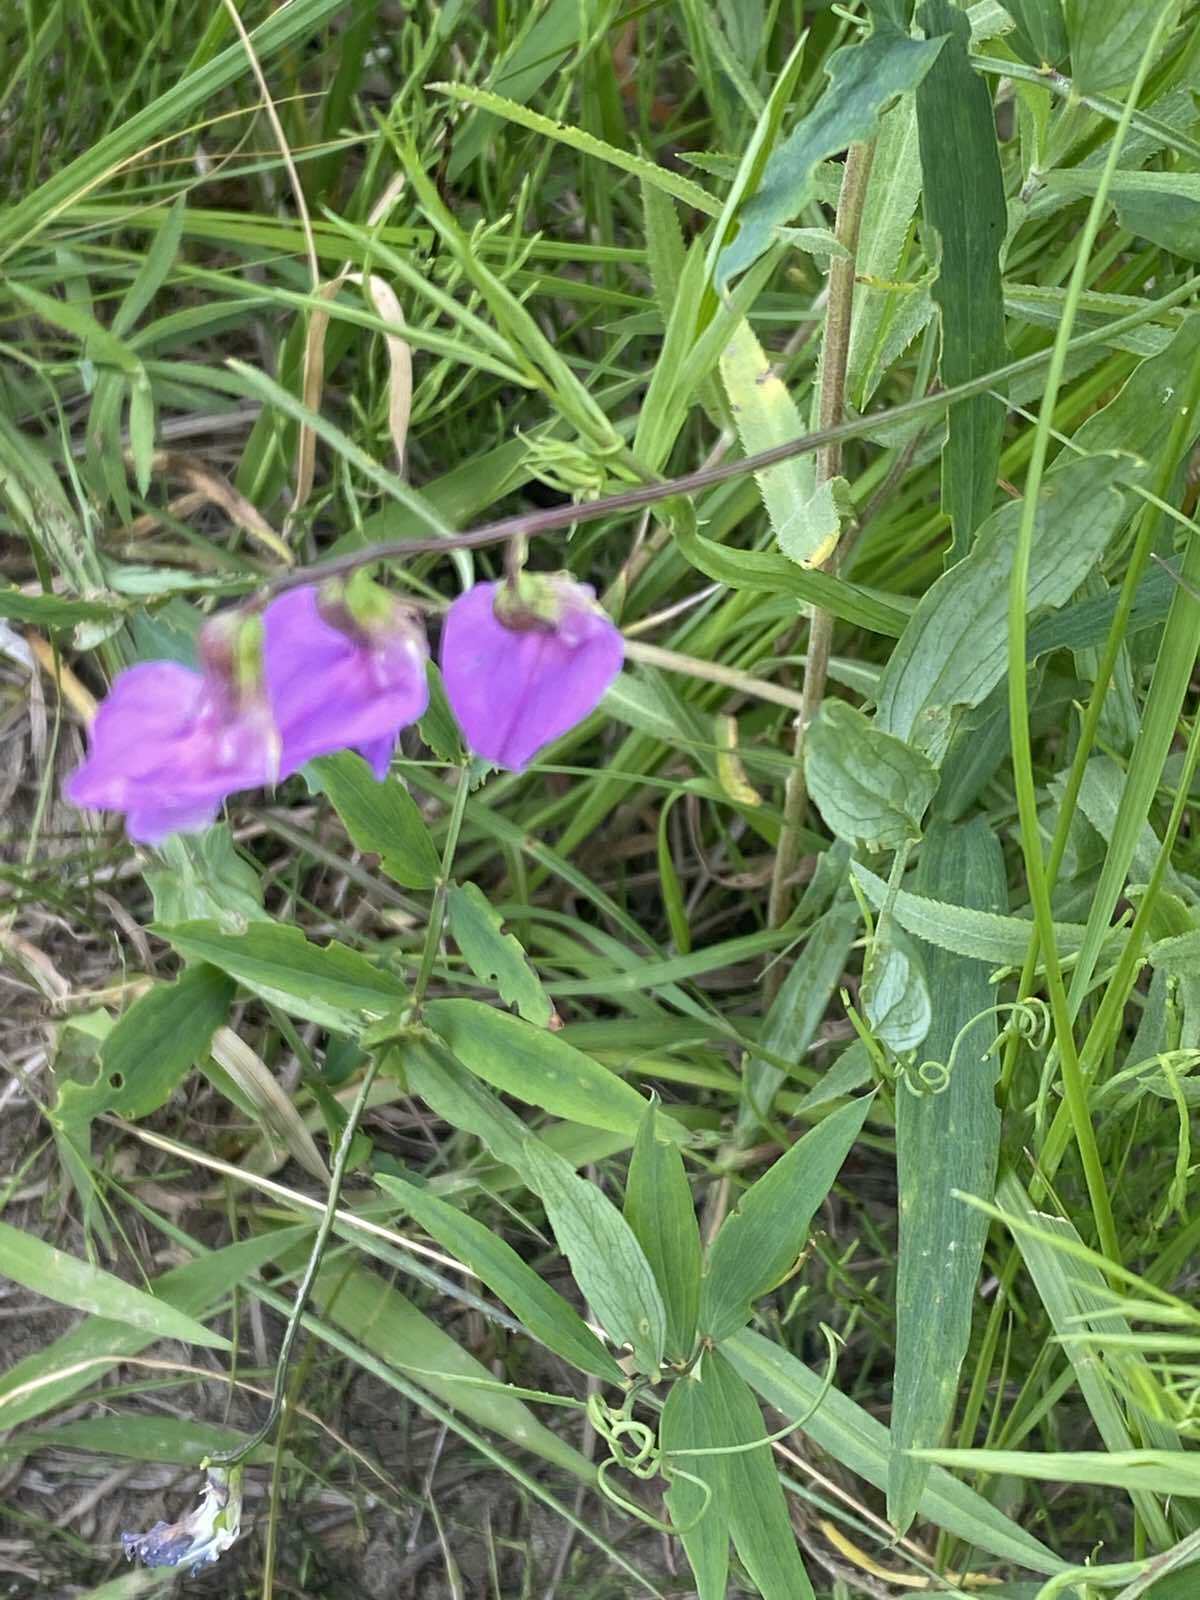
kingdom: Plantae
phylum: Tracheophyta
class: Magnoliopsida
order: Fabales
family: Fabaceae
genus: Lathyrus
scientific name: Lathyrus palustris
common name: Marsh pea
